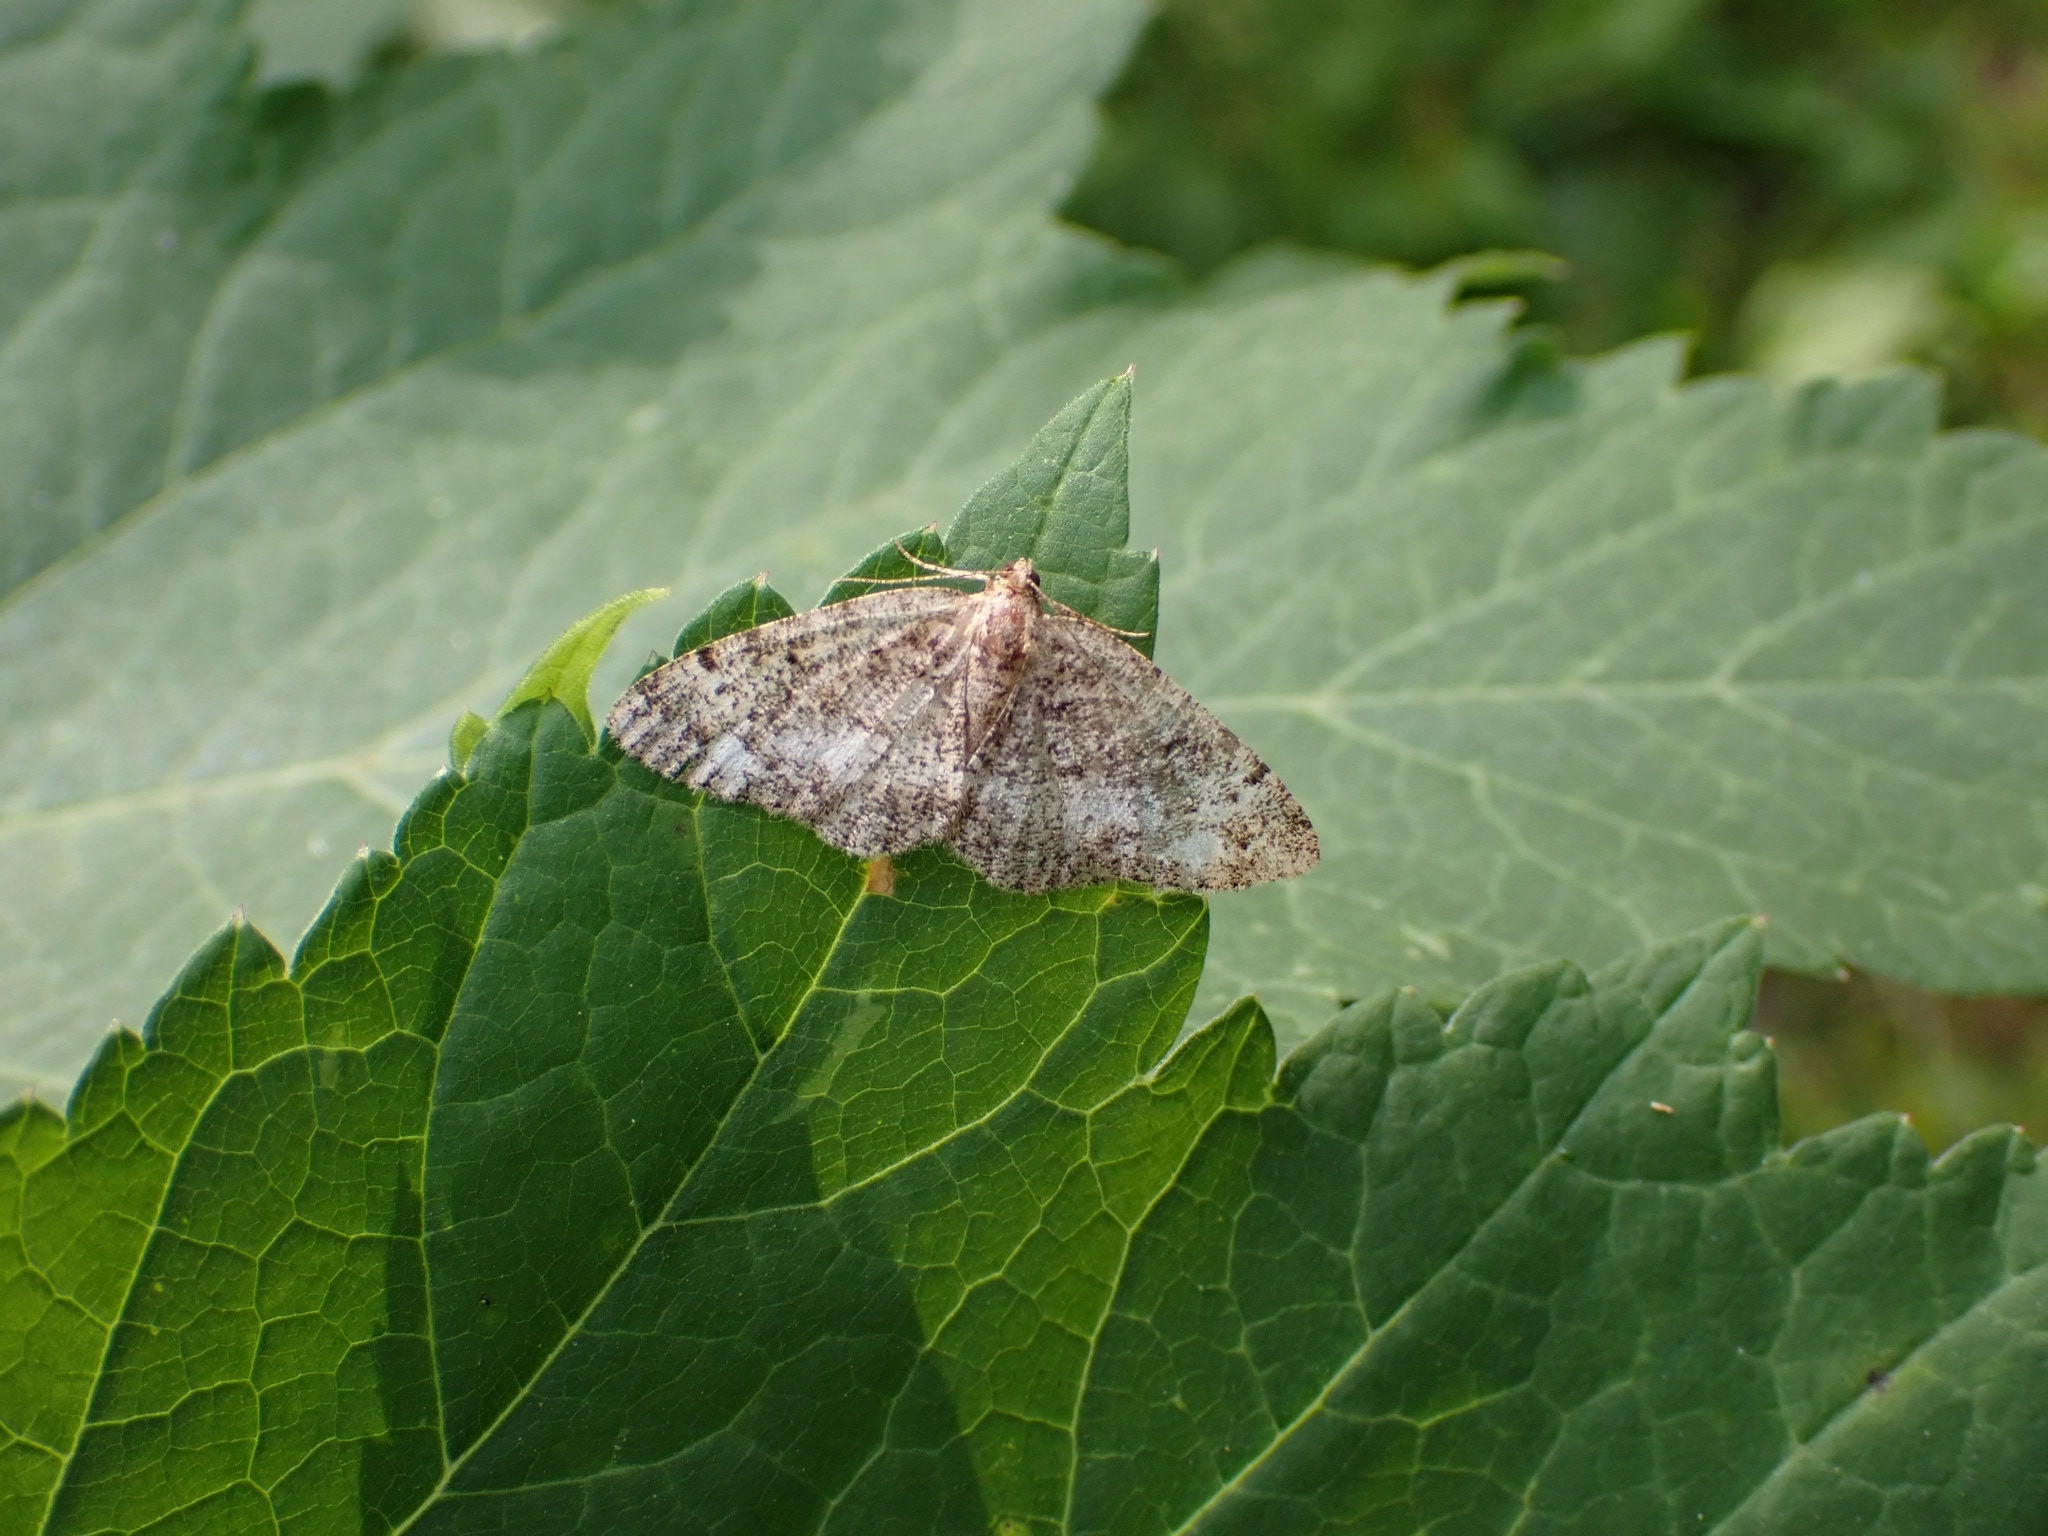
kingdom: Animalia
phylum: Arthropoda
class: Insecta
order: Lepidoptera
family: Geometridae
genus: Parectropis
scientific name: Parectropis similaria
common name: Brindled white-spot
